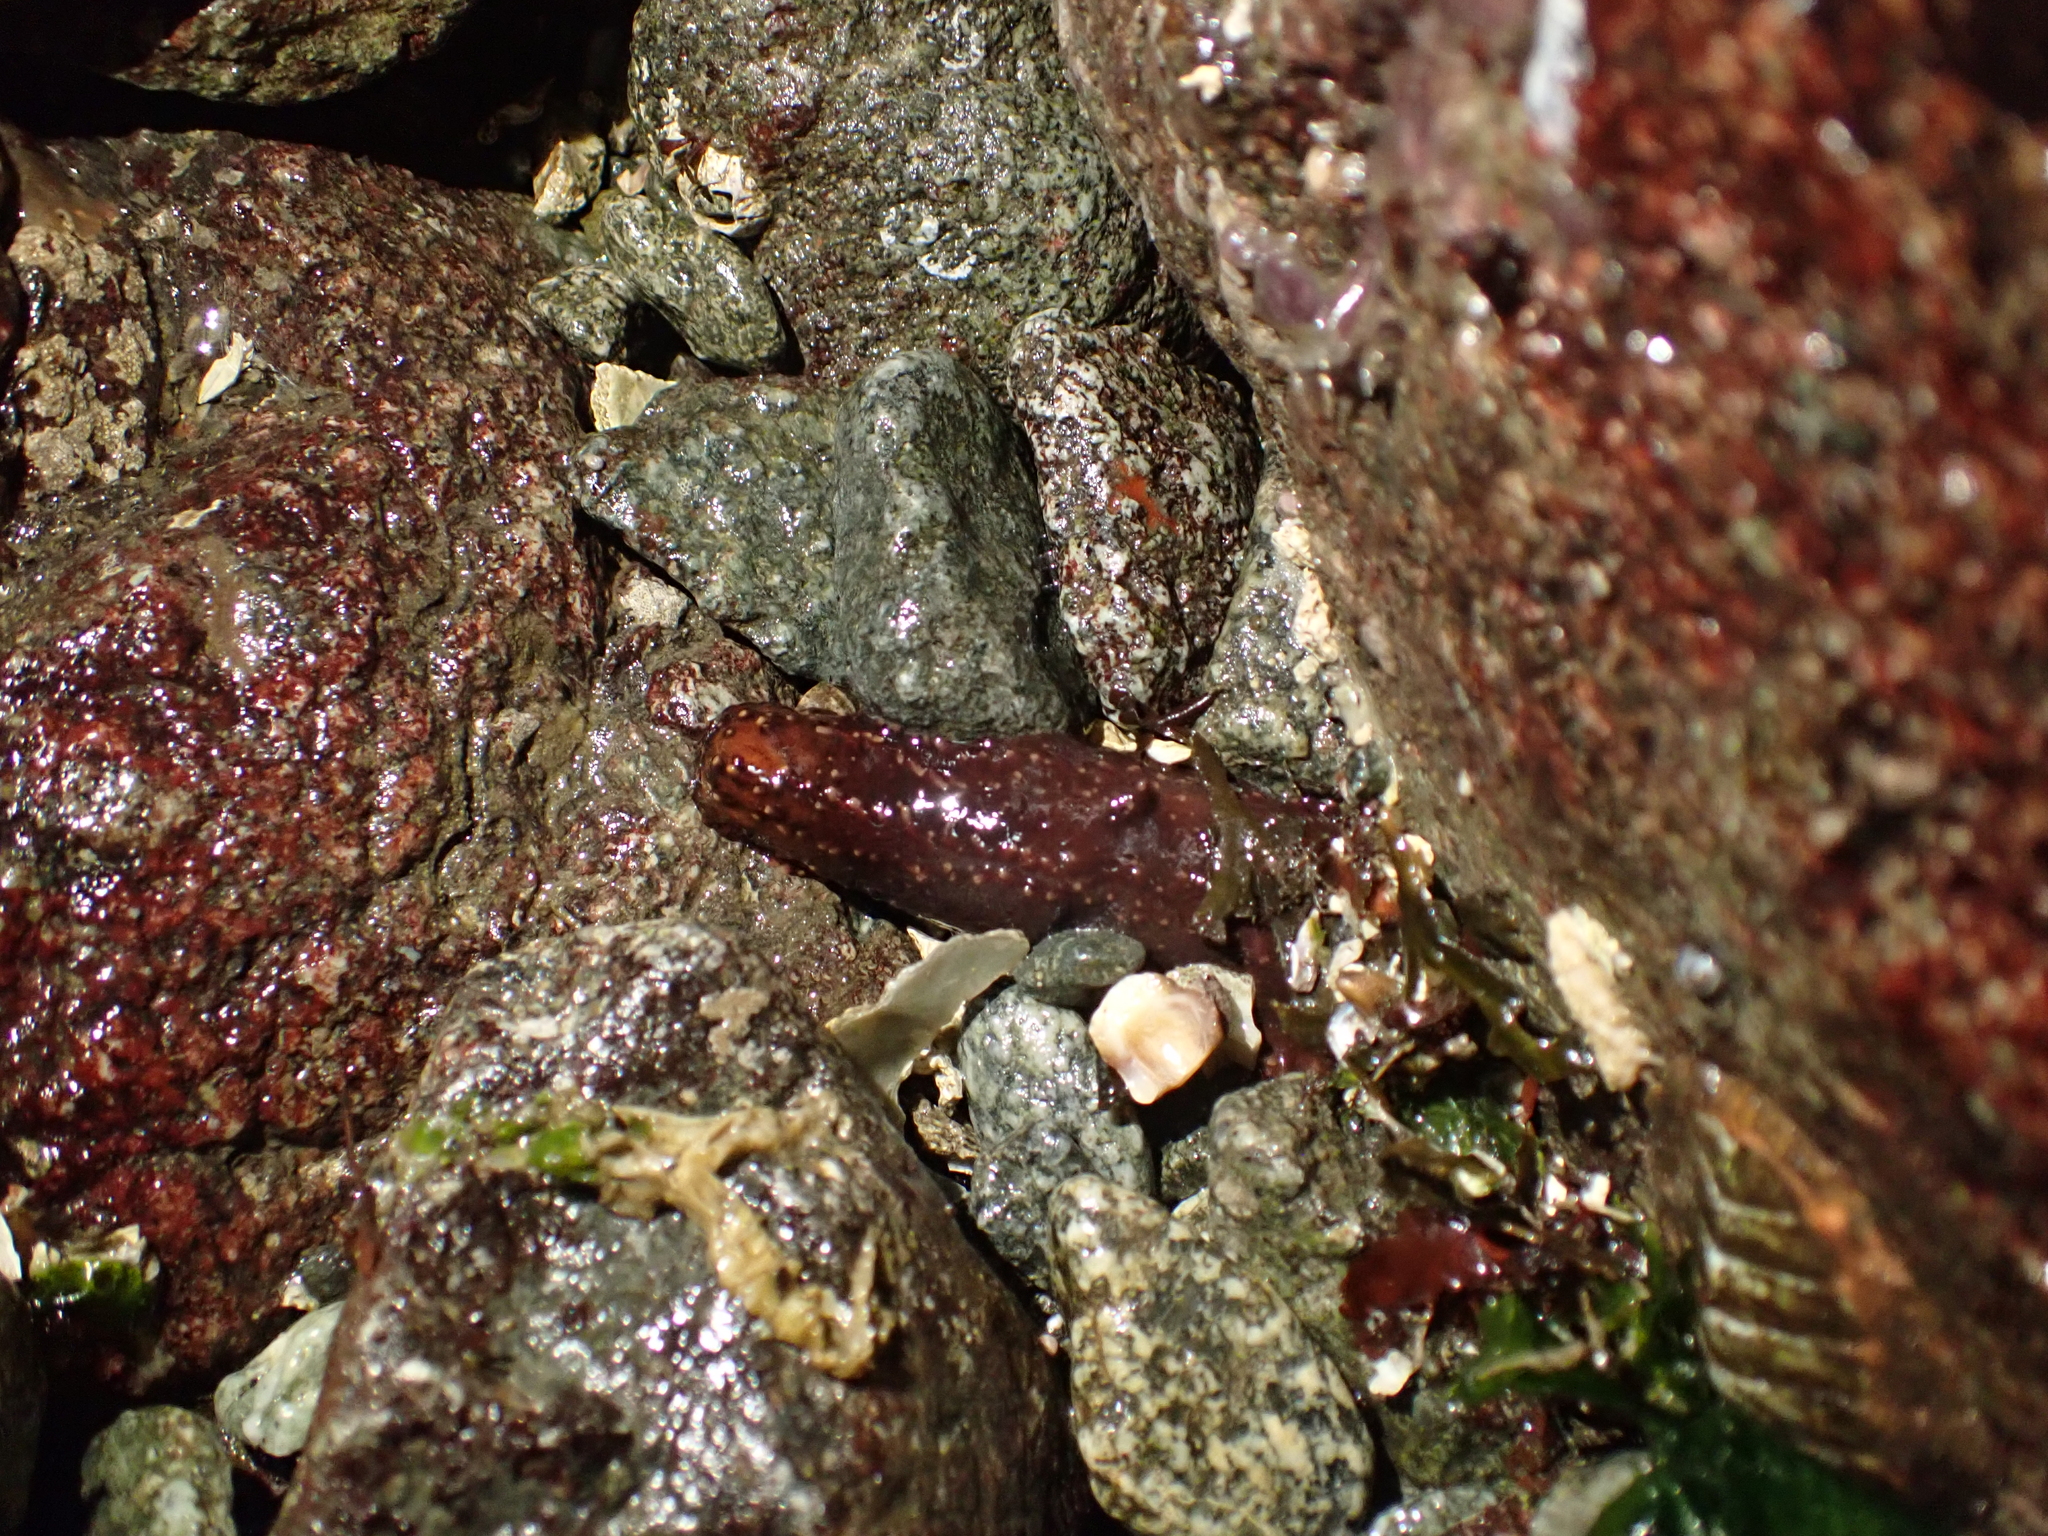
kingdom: Animalia
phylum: Echinodermata
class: Holothuroidea
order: Dendrochirotida
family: Cucumariidae
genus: Cucumaria
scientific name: Cucumaria miniata
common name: Orange sea cucumber
